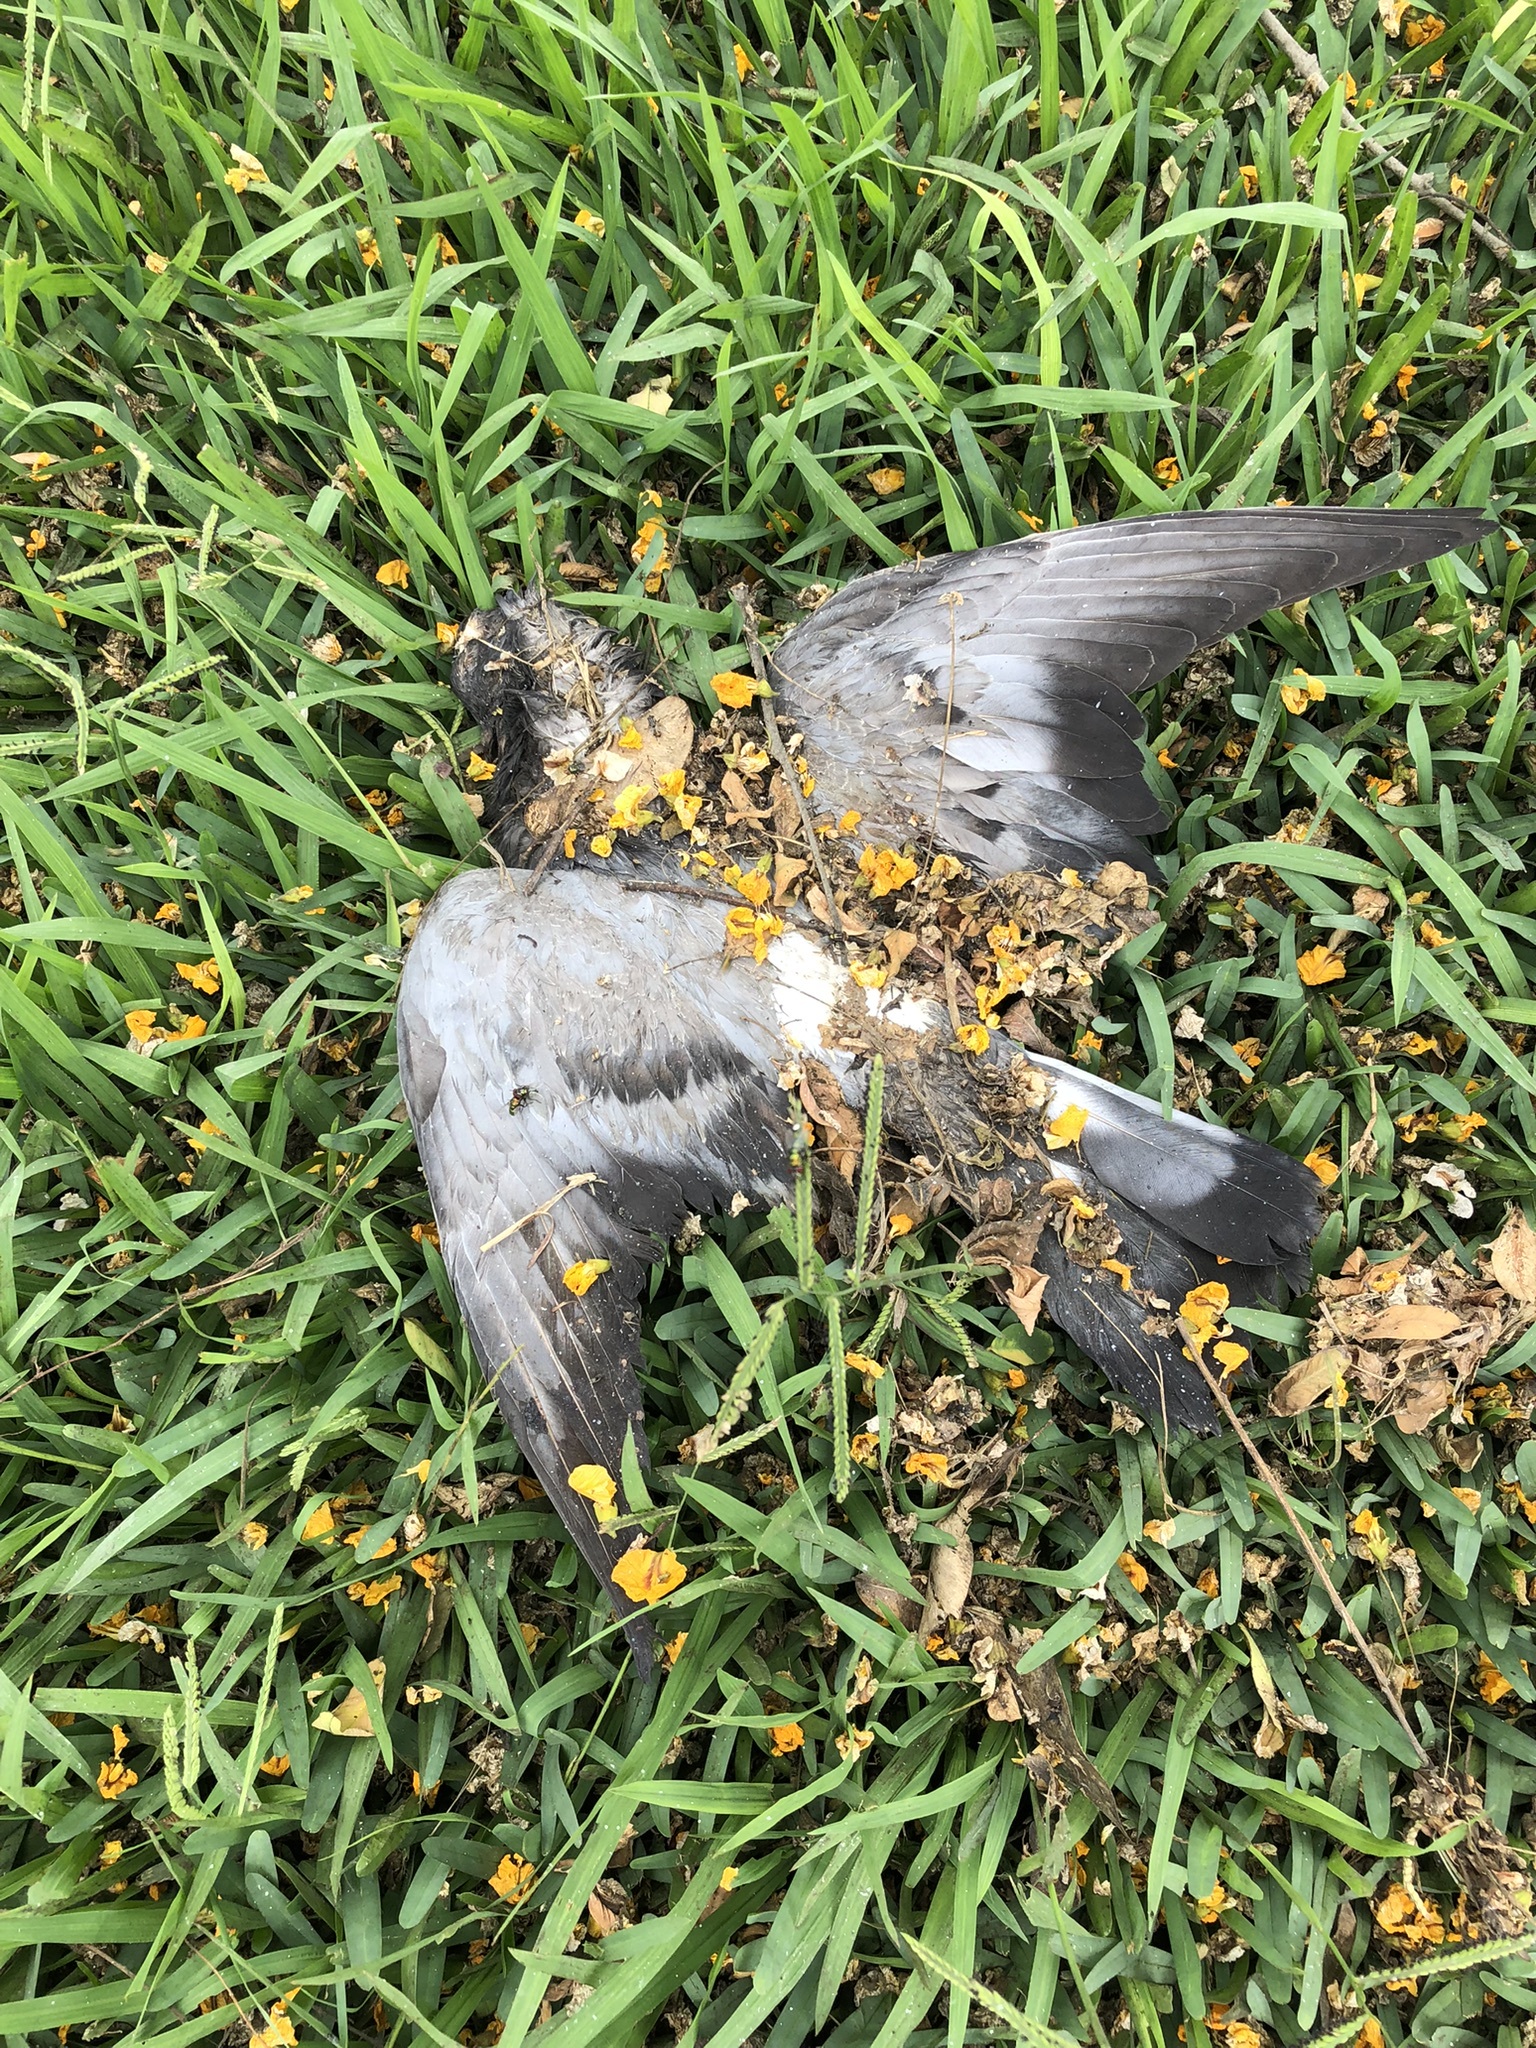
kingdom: Animalia
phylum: Chordata
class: Aves
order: Columbiformes
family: Columbidae
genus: Columba
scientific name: Columba livia
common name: Rock pigeon
